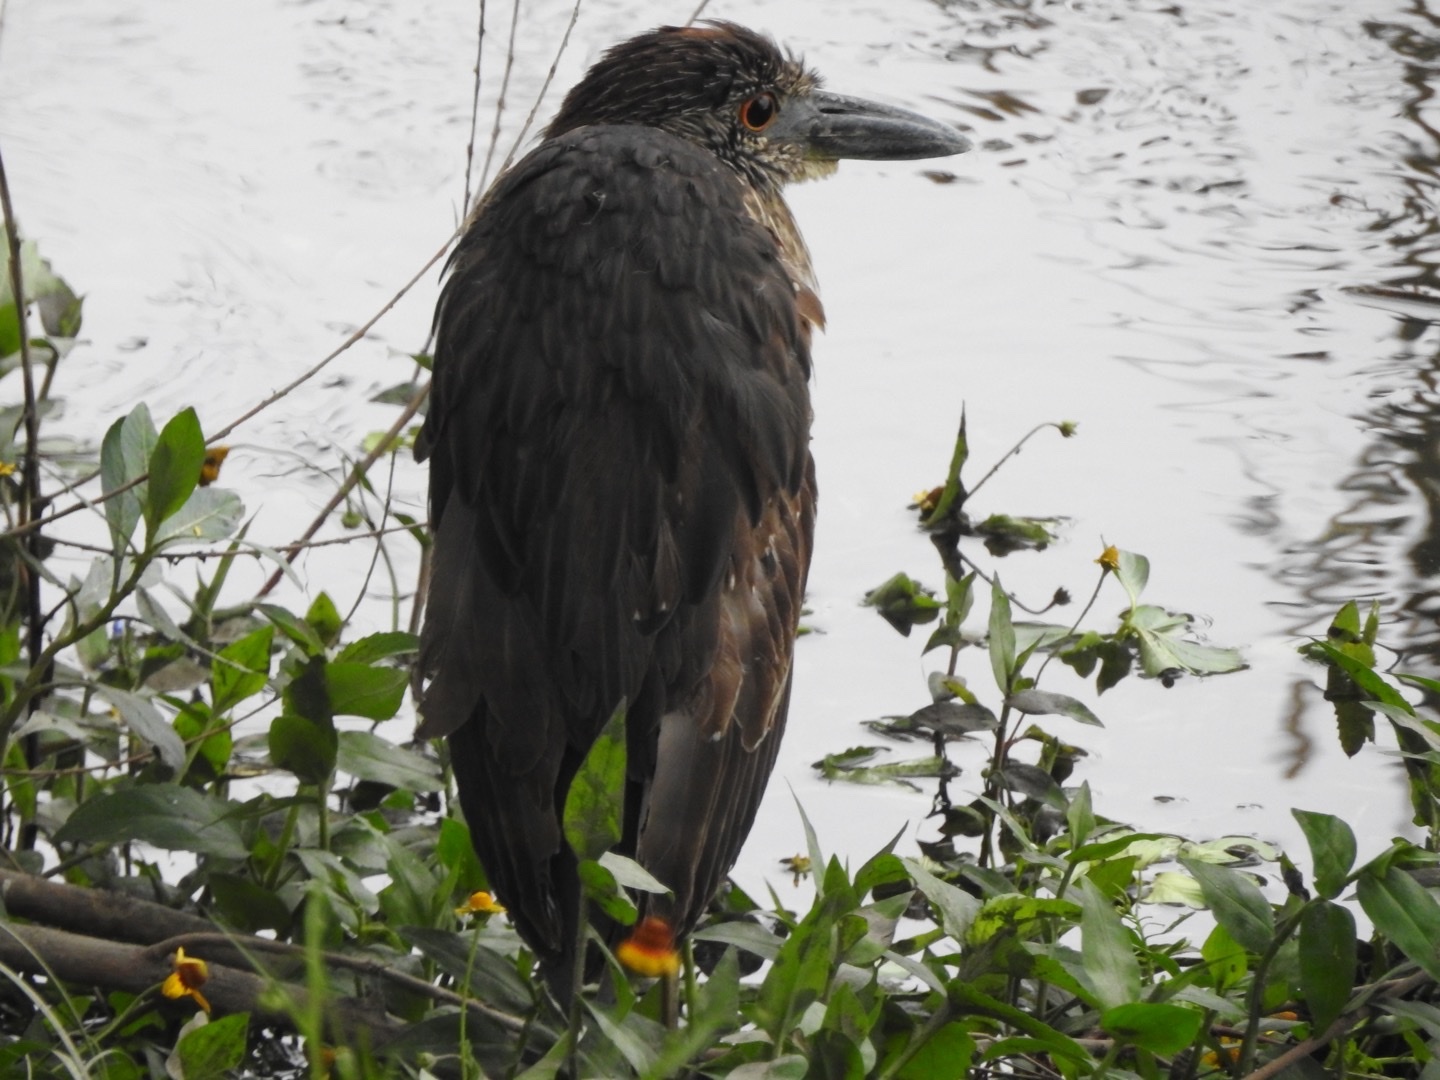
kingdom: Animalia
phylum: Chordata
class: Aves
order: Pelecaniformes
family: Ardeidae
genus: Nyctanassa
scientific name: Nyctanassa violacea
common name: Yellow-crowned night heron
